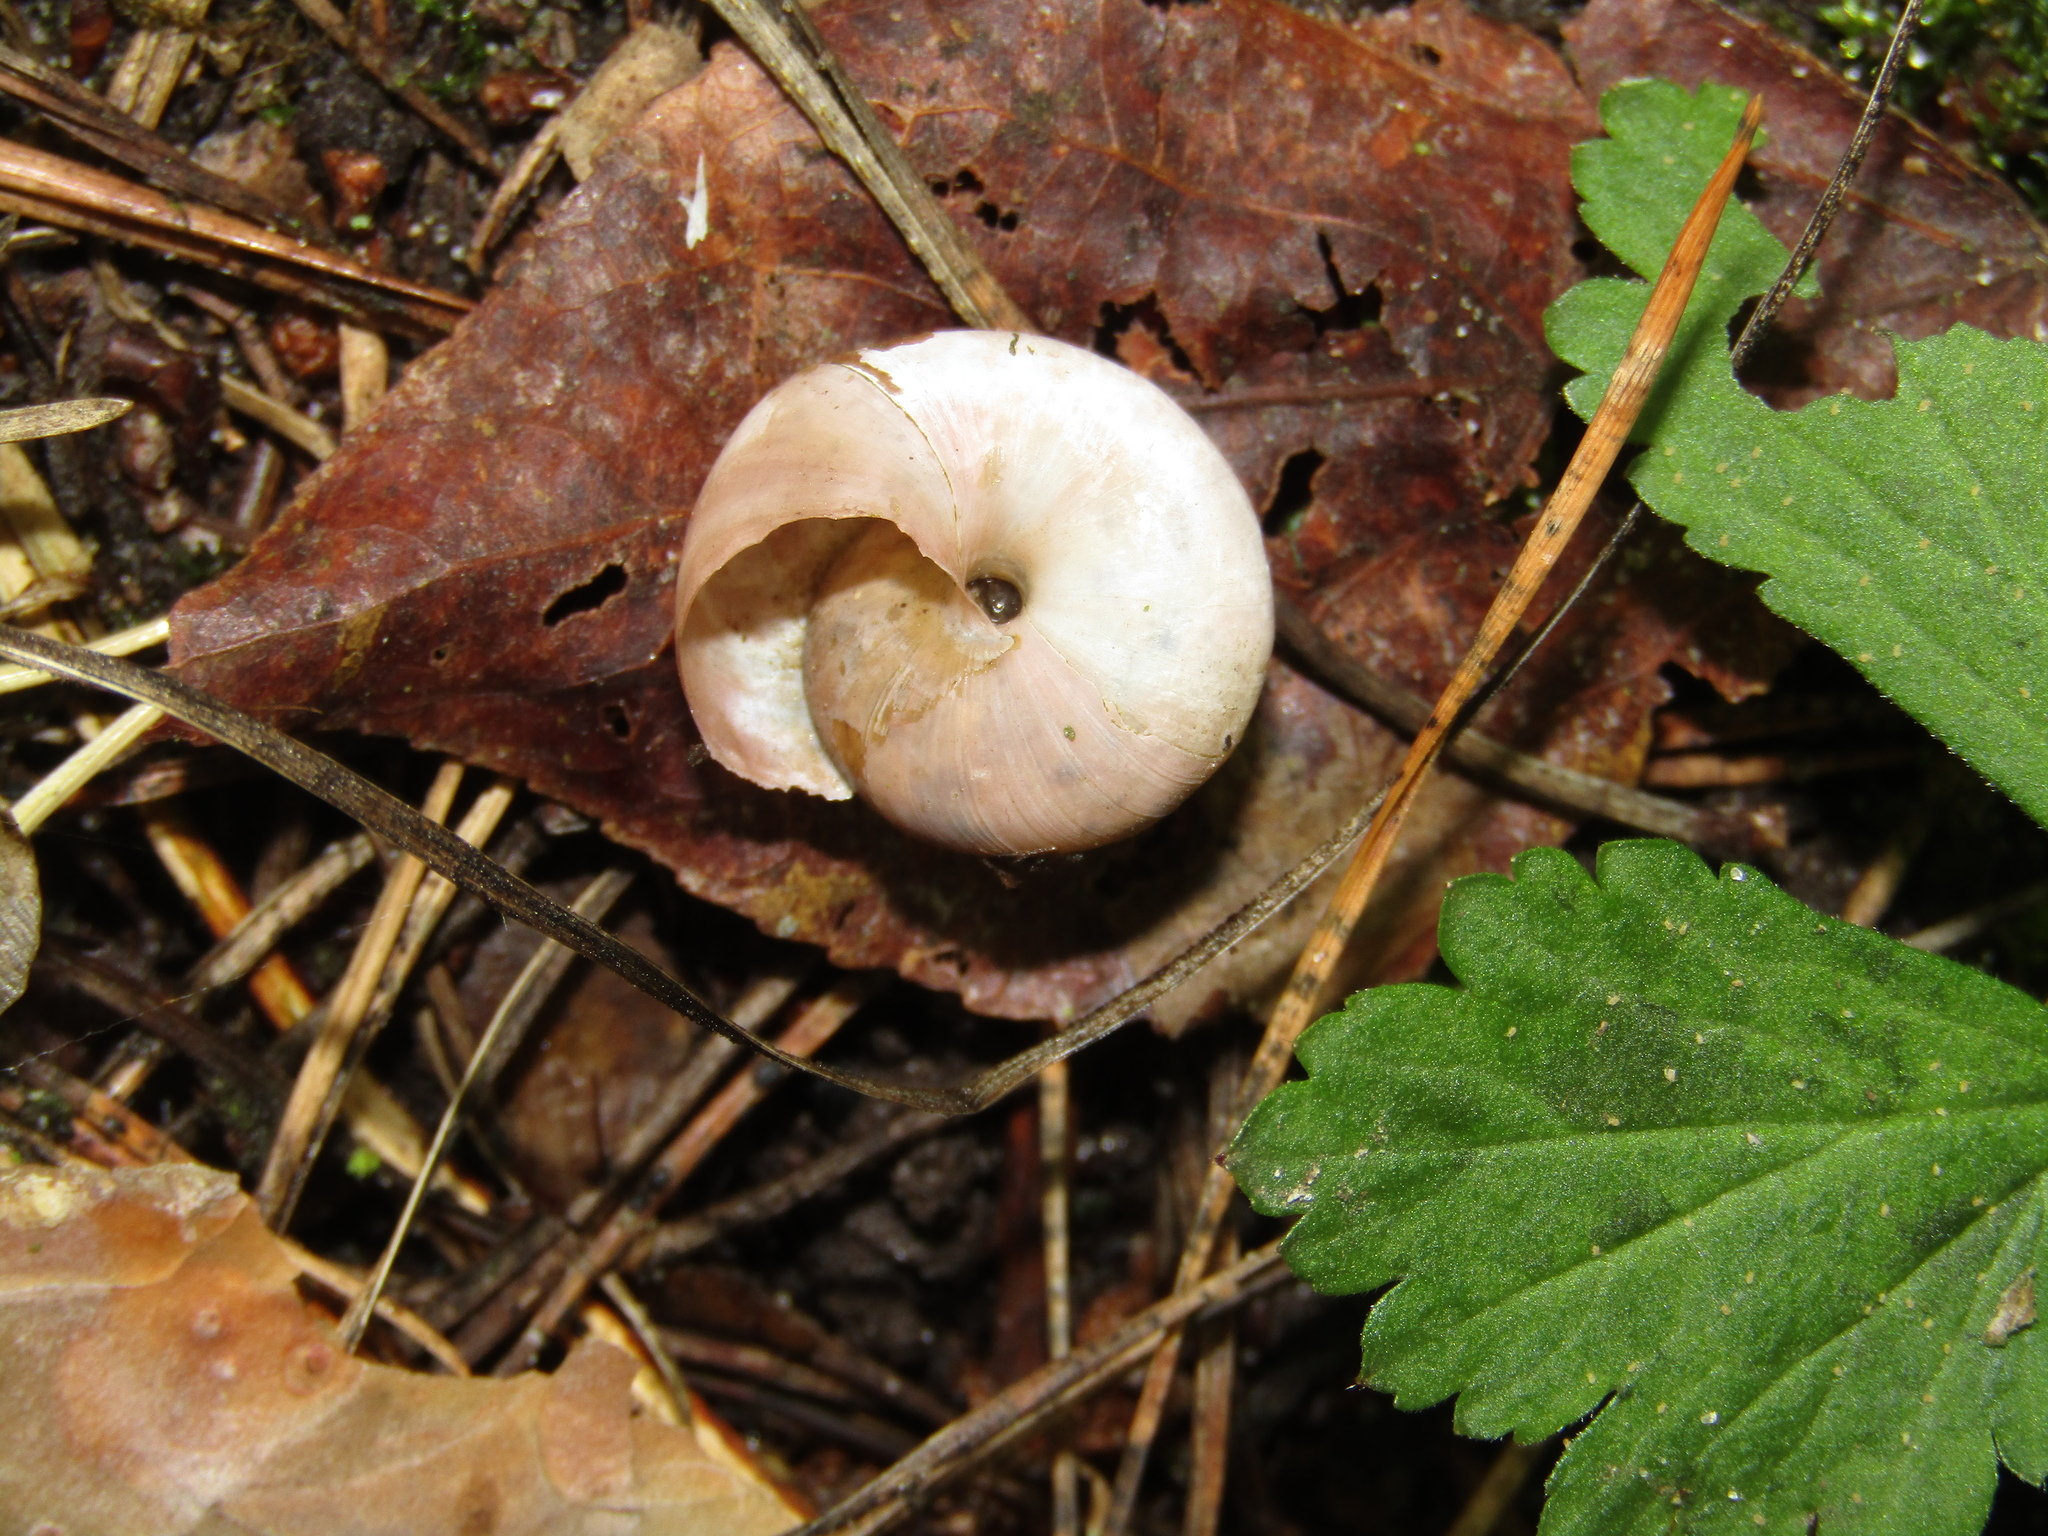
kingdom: Animalia
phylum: Mollusca
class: Gastropoda
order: Stylommatophora
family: Camaenidae
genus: Fruticicola
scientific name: Fruticicola fruticum
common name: Bush snail
